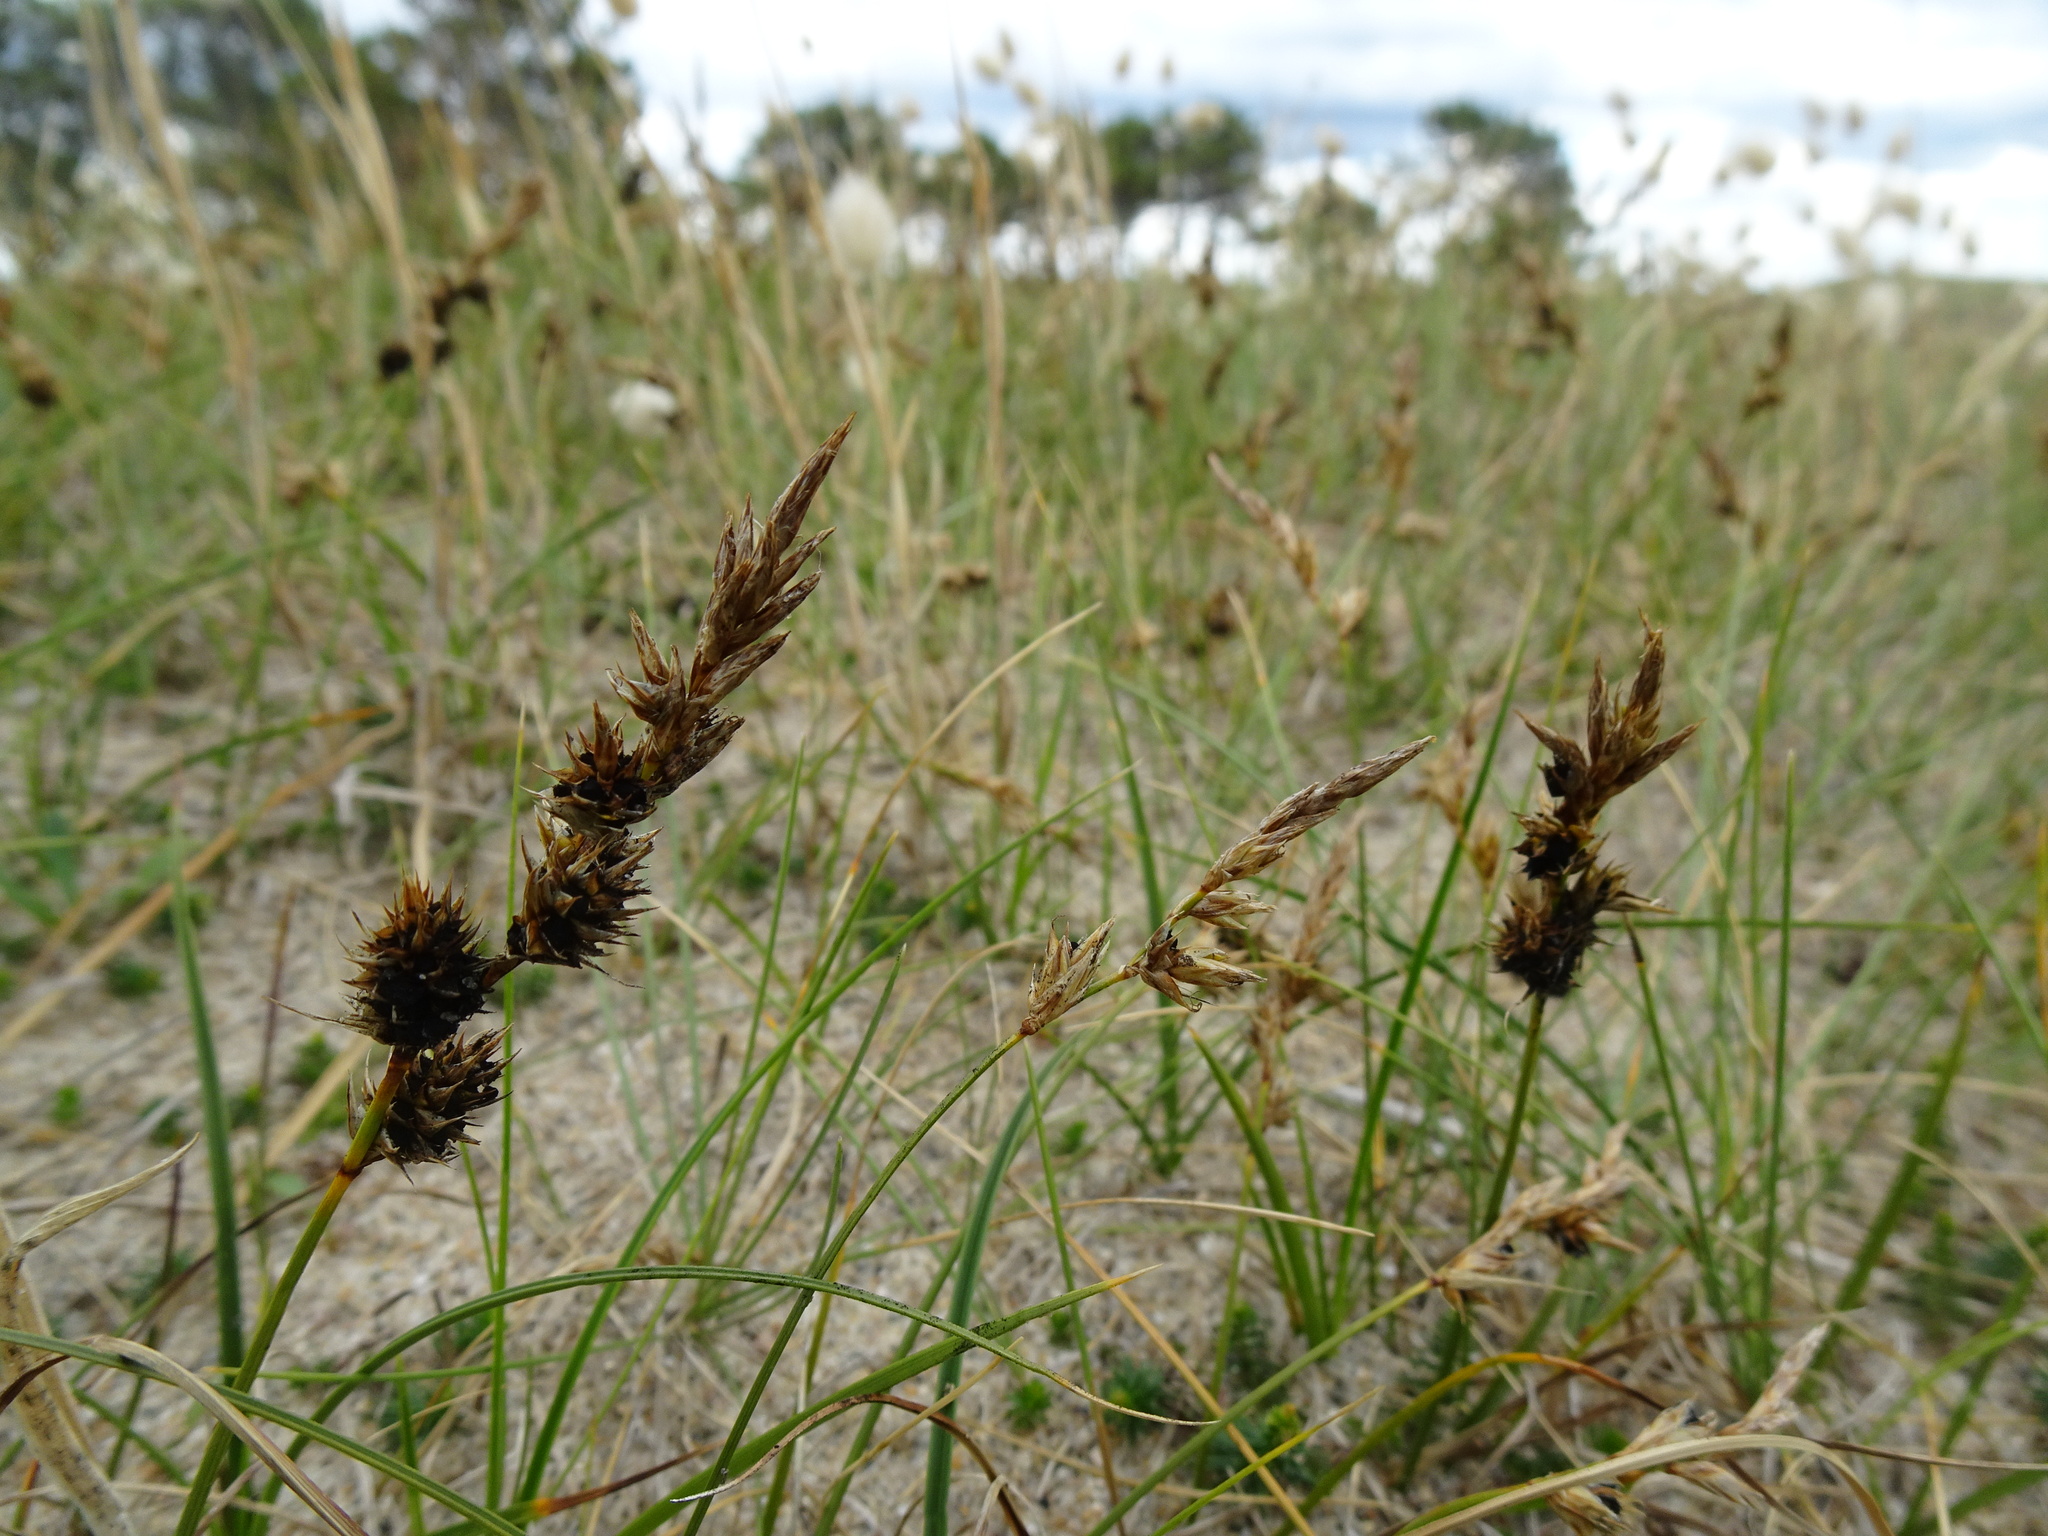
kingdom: Plantae
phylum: Tracheophyta
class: Liliopsida
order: Poales
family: Cyperaceae
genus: Carex
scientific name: Carex arenaria
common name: Sand sedge
